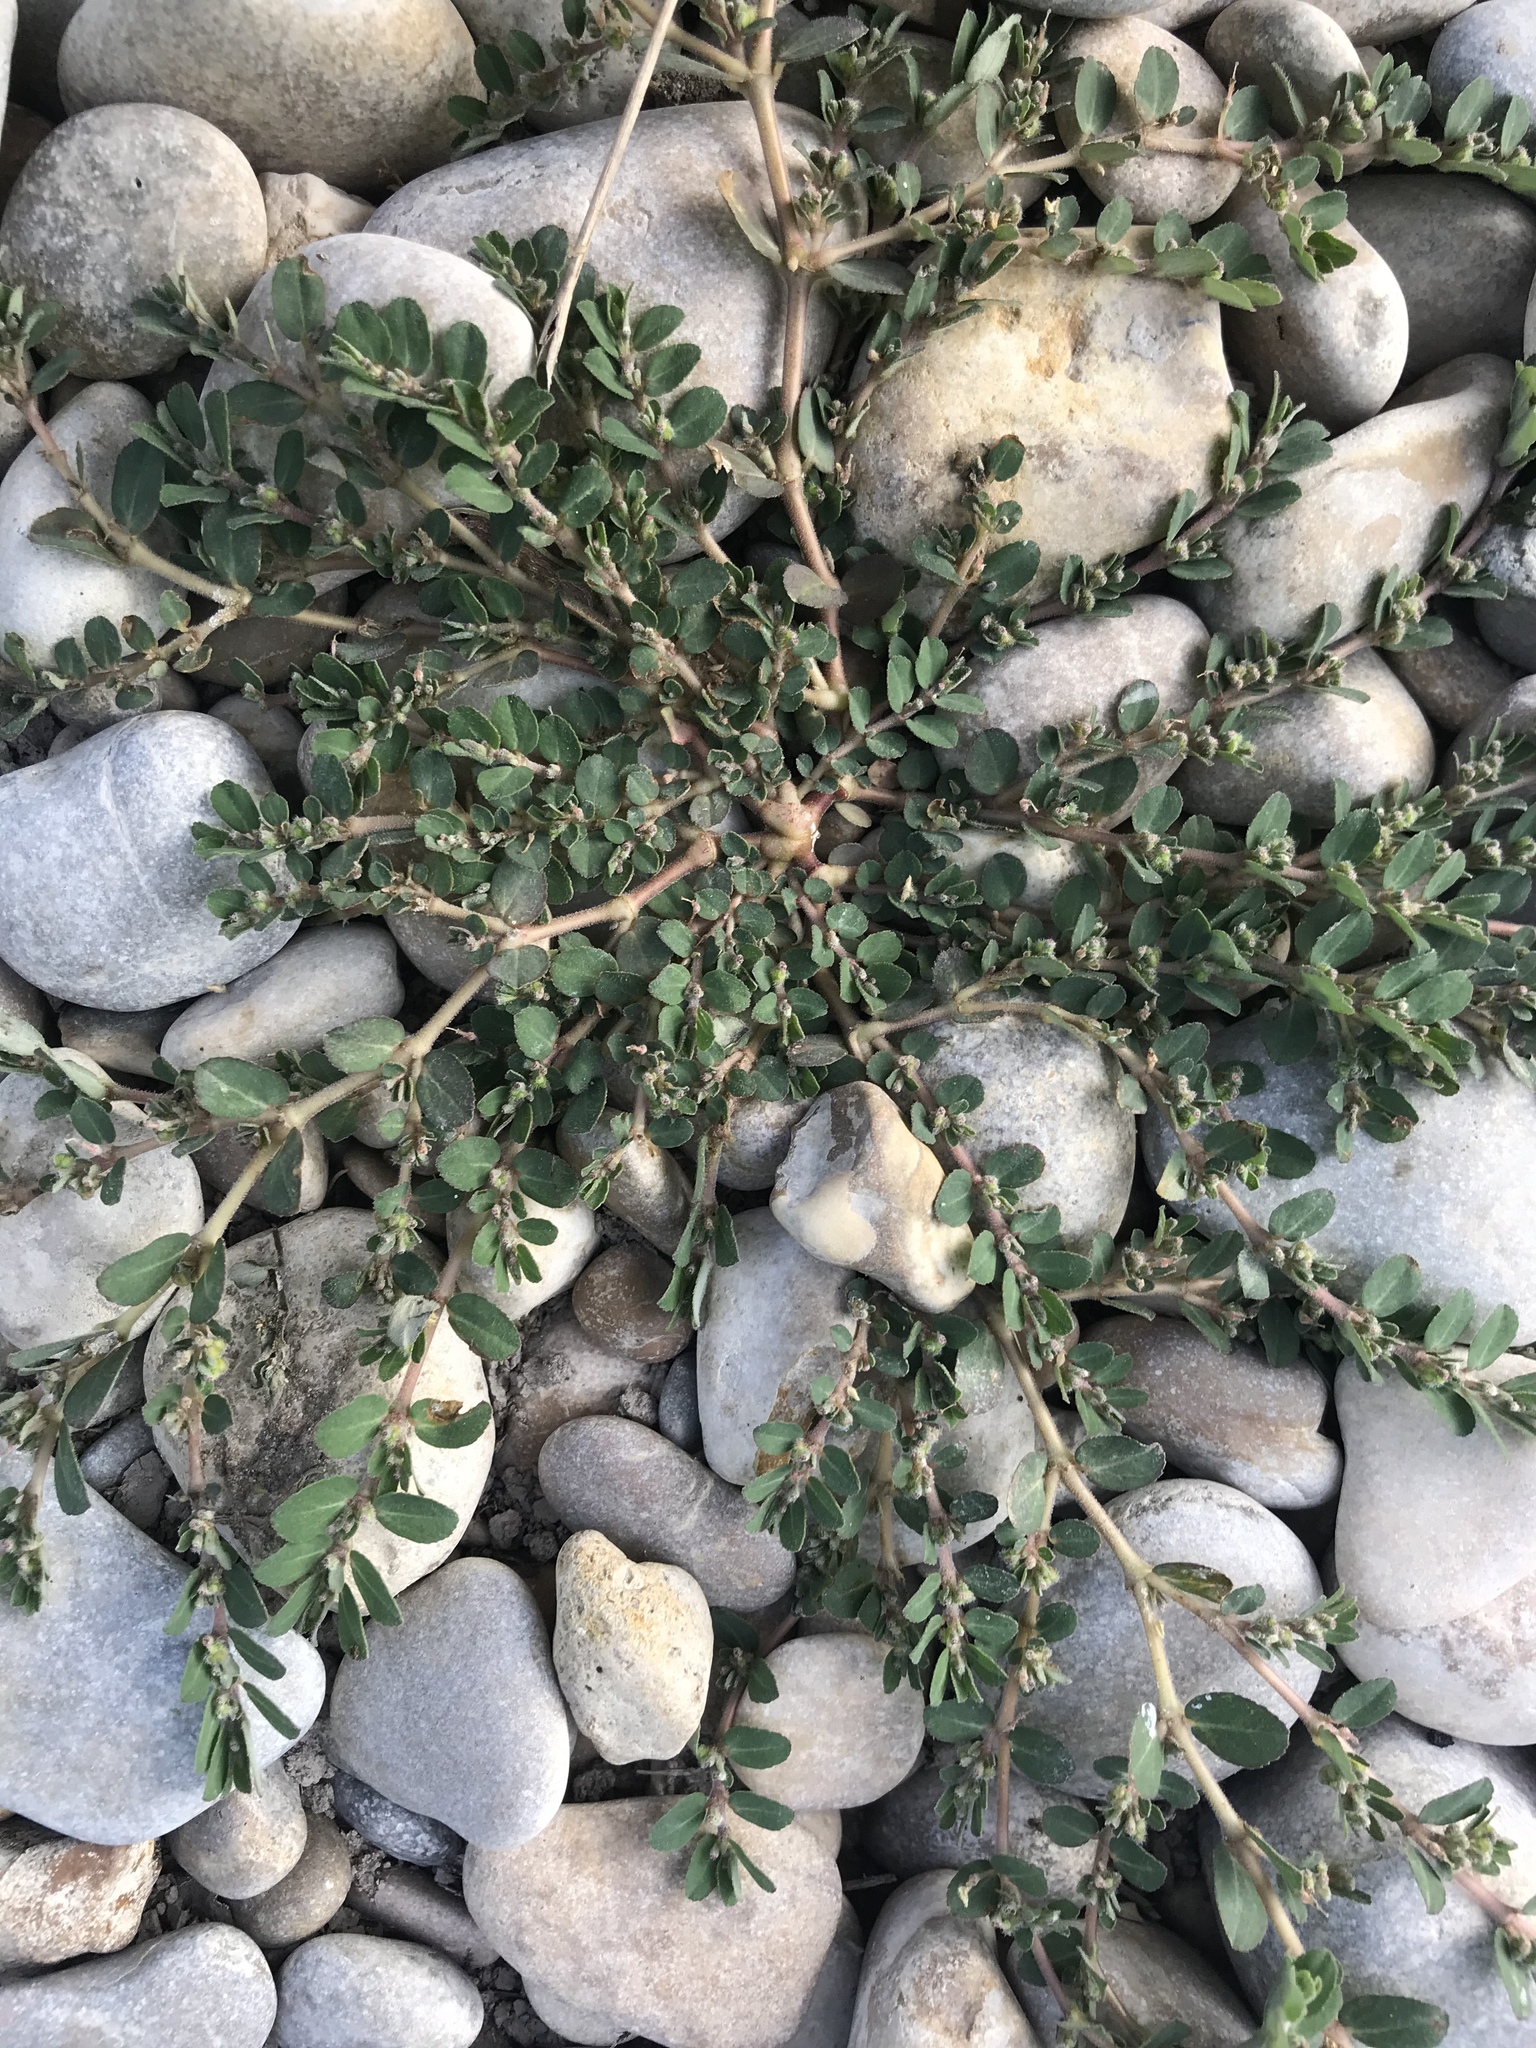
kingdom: Plantae
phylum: Tracheophyta
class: Magnoliopsida
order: Malpighiales
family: Euphorbiaceae
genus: Euphorbia
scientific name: Euphorbia prostrata
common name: Prostrate sandmat
